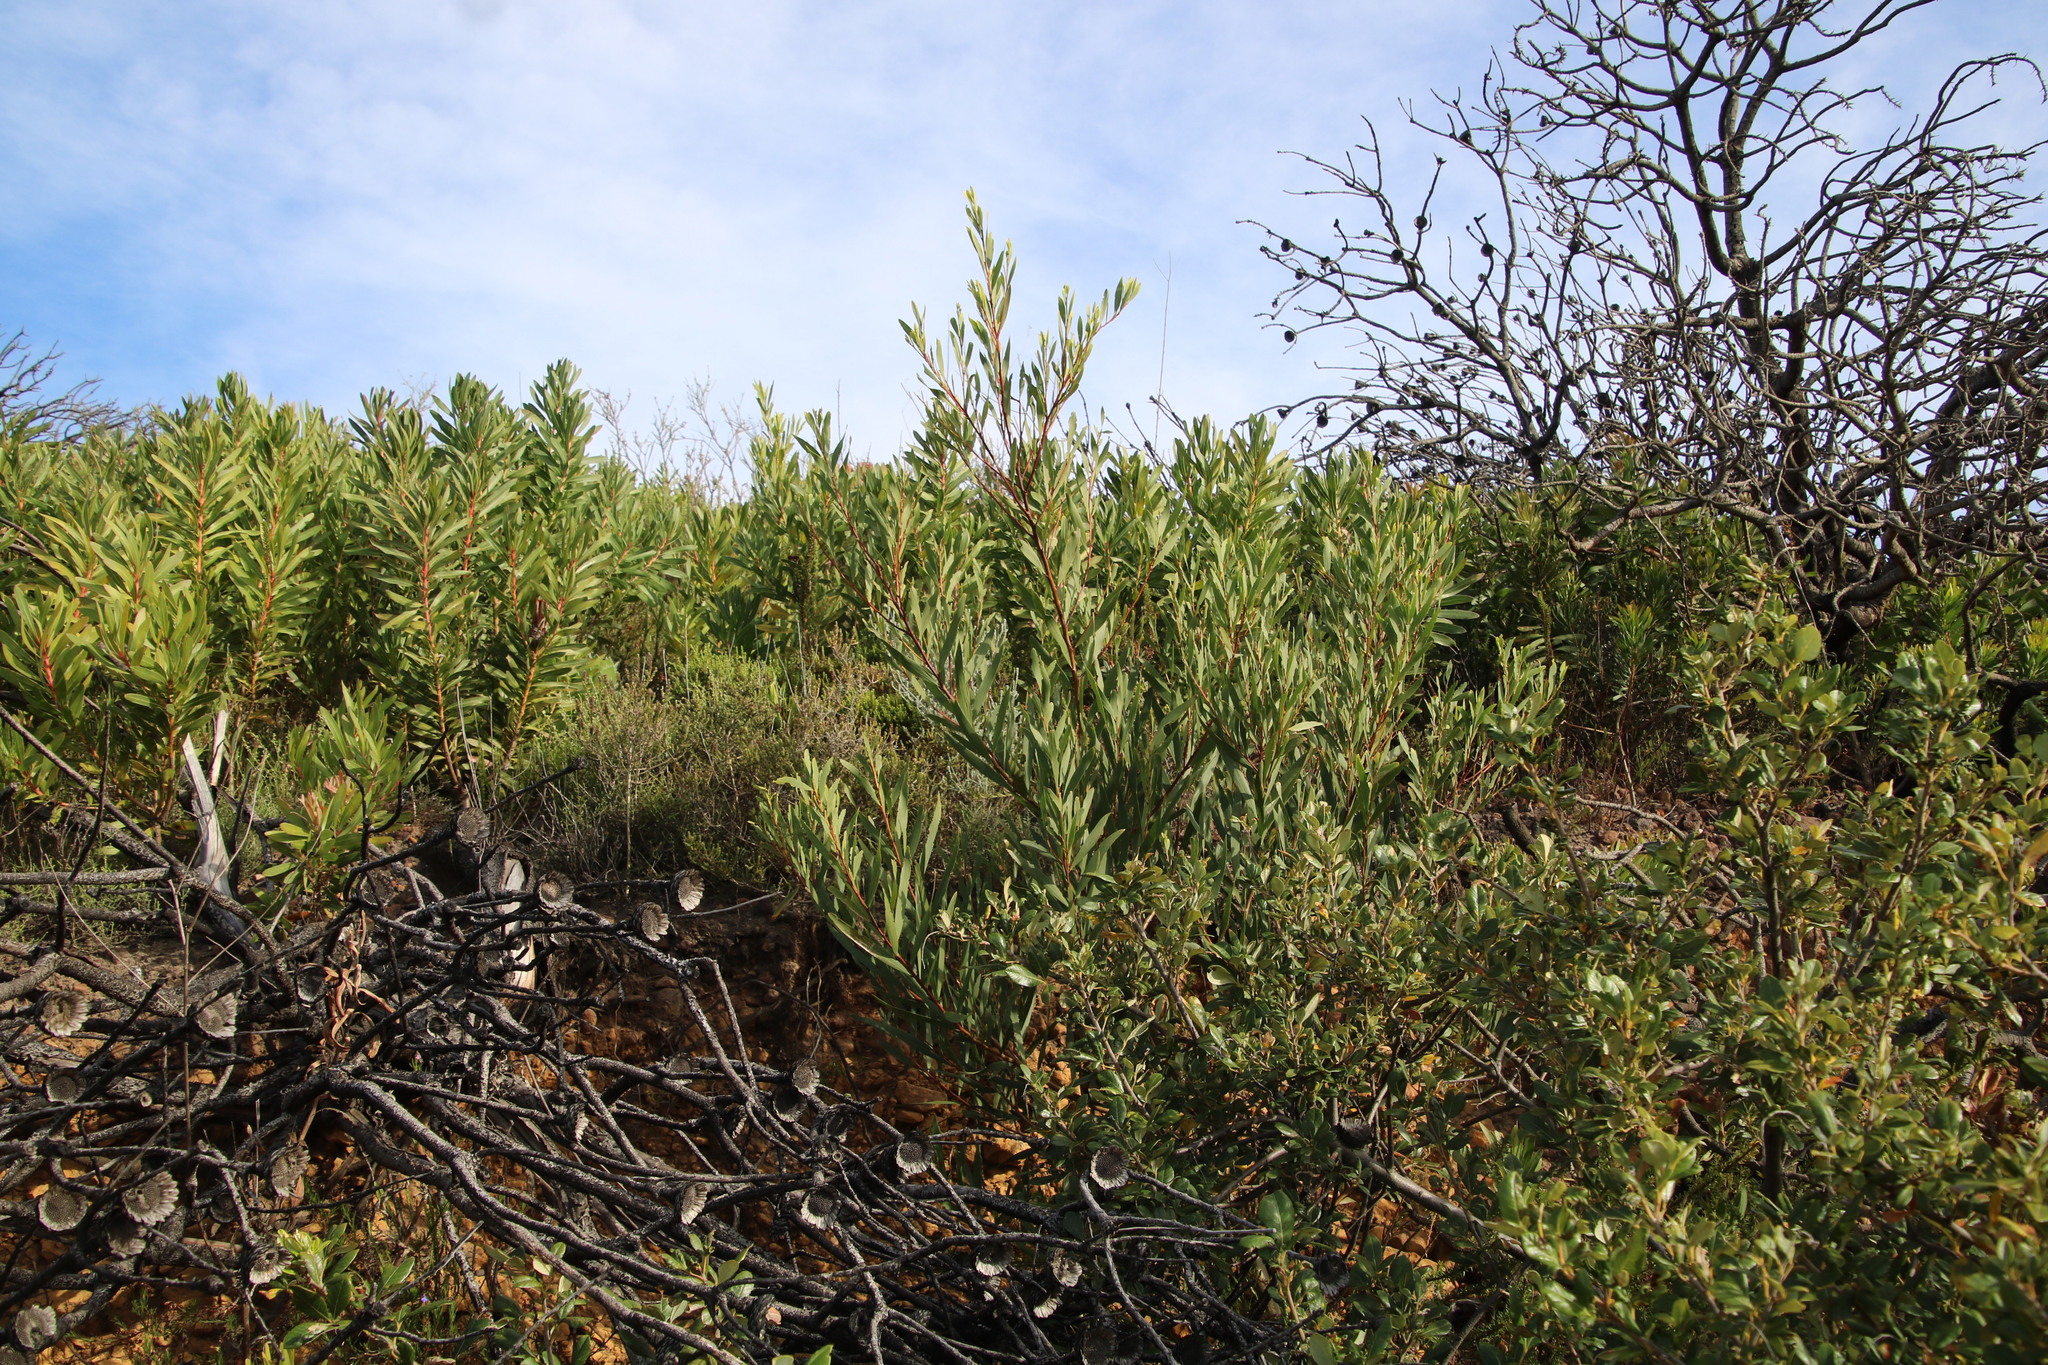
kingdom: Plantae
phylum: Tracheophyta
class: Magnoliopsida
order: Fabales
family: Fabaceae
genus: Acacia
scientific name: Acacia longifolia
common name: Sydney golden wattle
